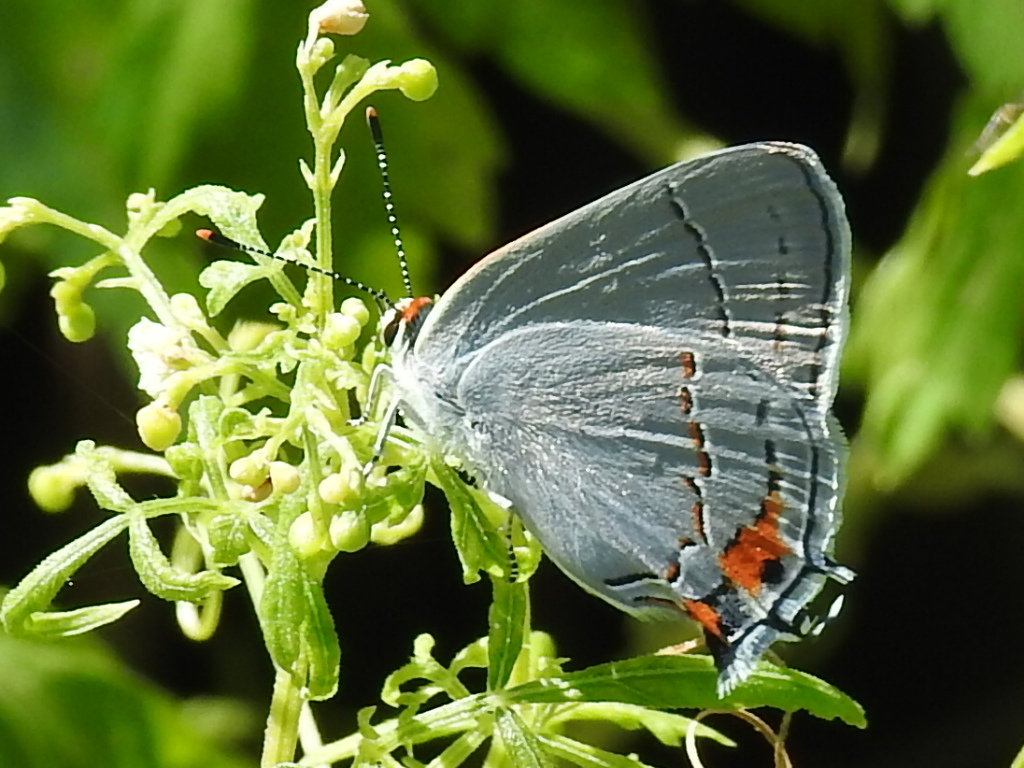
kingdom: Animalia
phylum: Arthropoda
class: Insecta
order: Lepidoptera
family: Lycaenidae
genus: Strymon
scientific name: Strymon melinus
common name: Gray hairstreak
